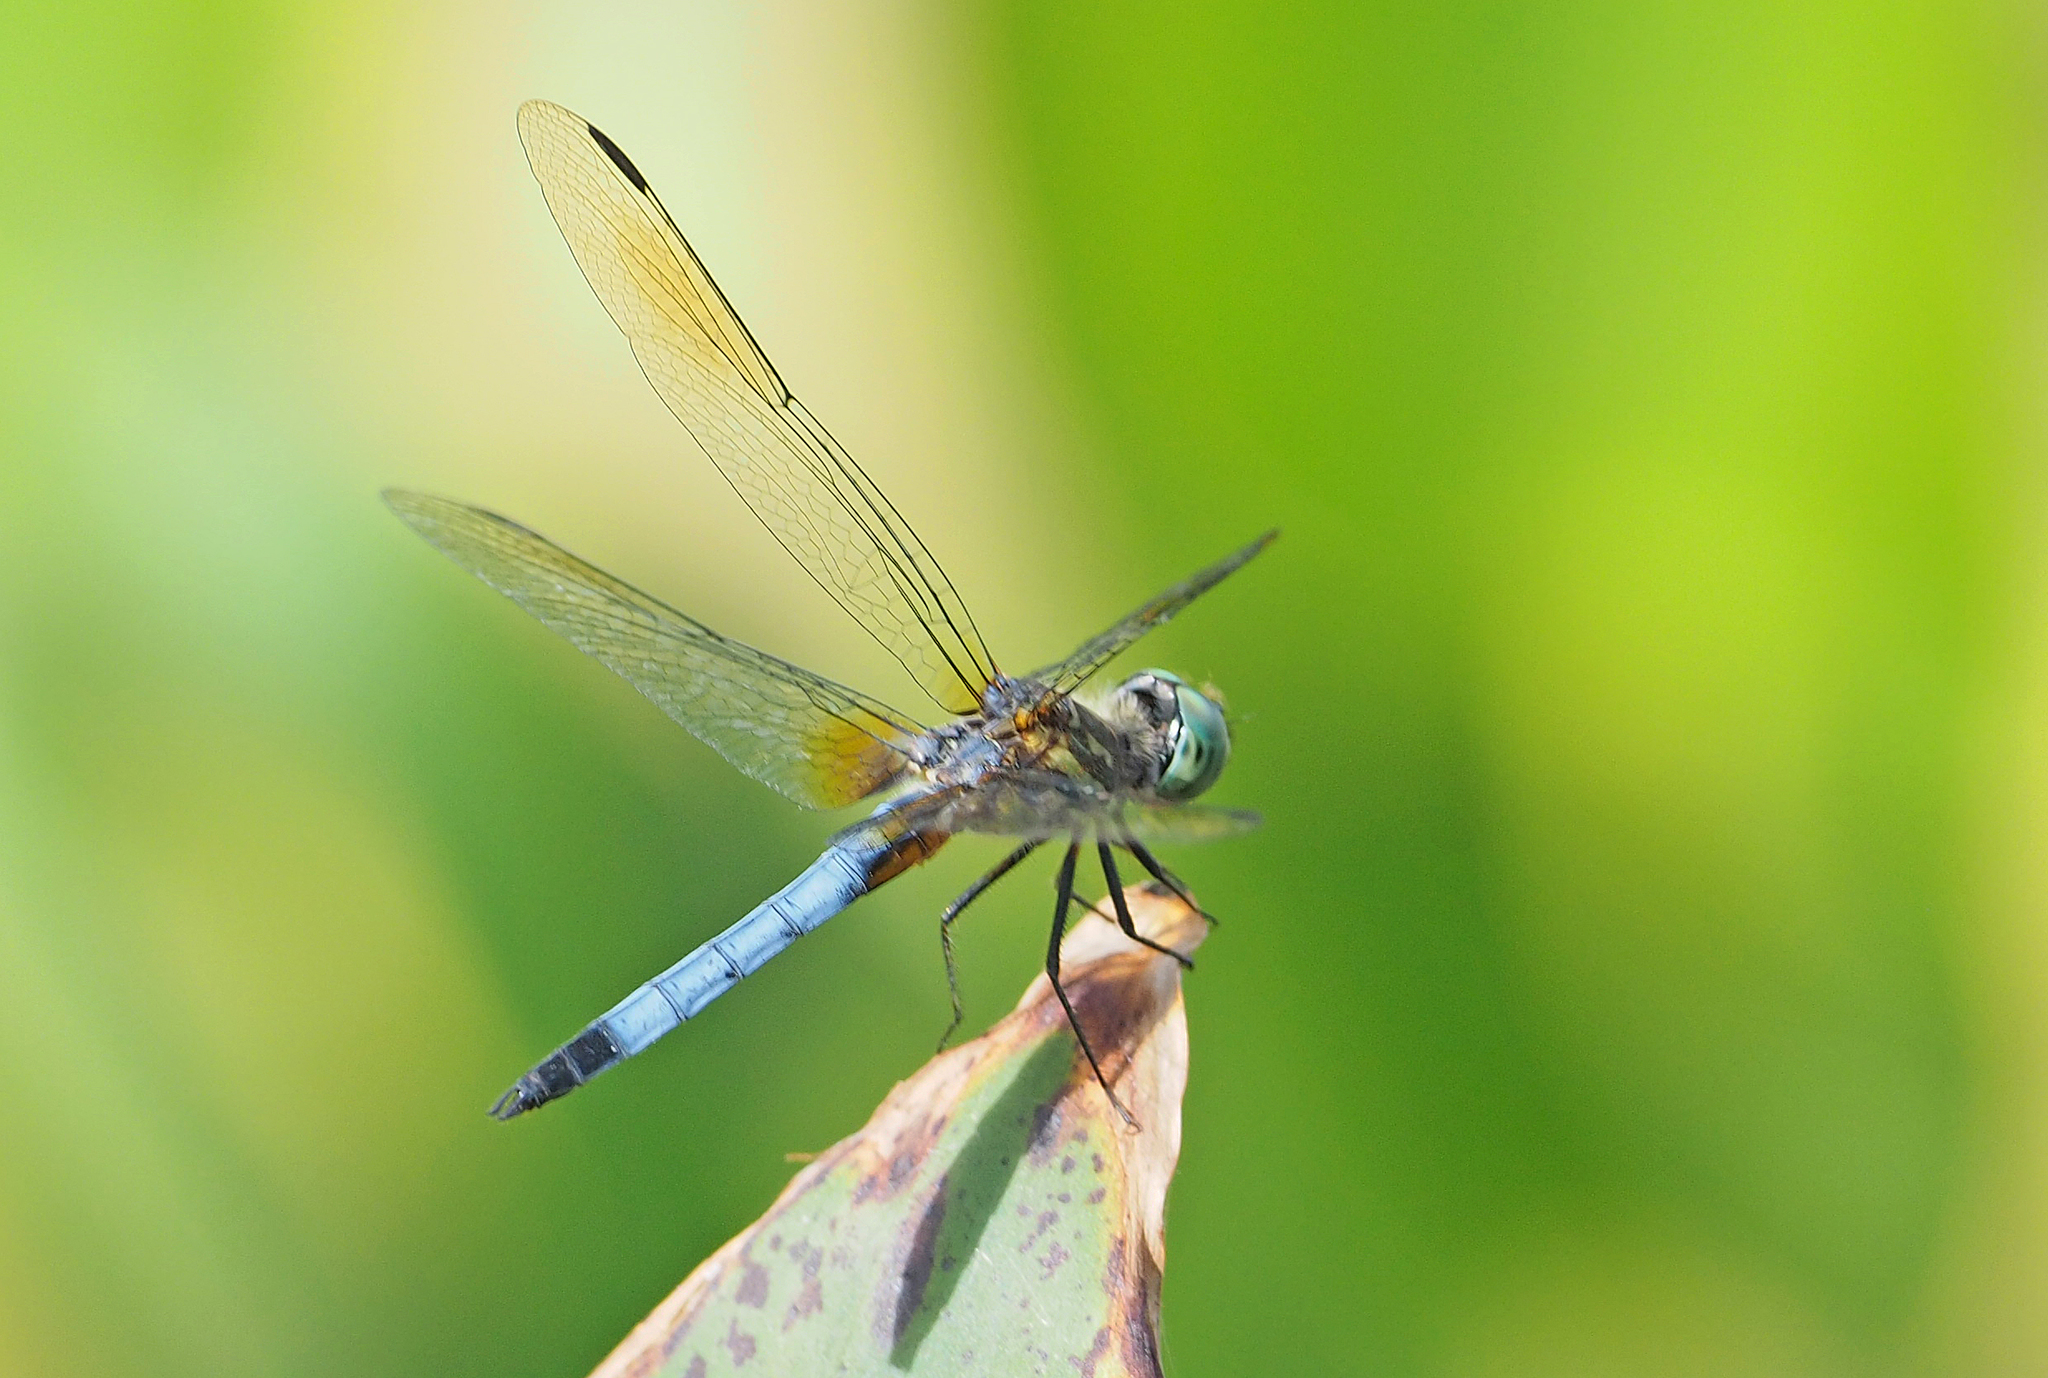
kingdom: Animalia
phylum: Arthropoda
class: Insecta
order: Odonata
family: Libellulidae
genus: Pachydiplax
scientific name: Pachydiplax longipennis
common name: Blue dasher
